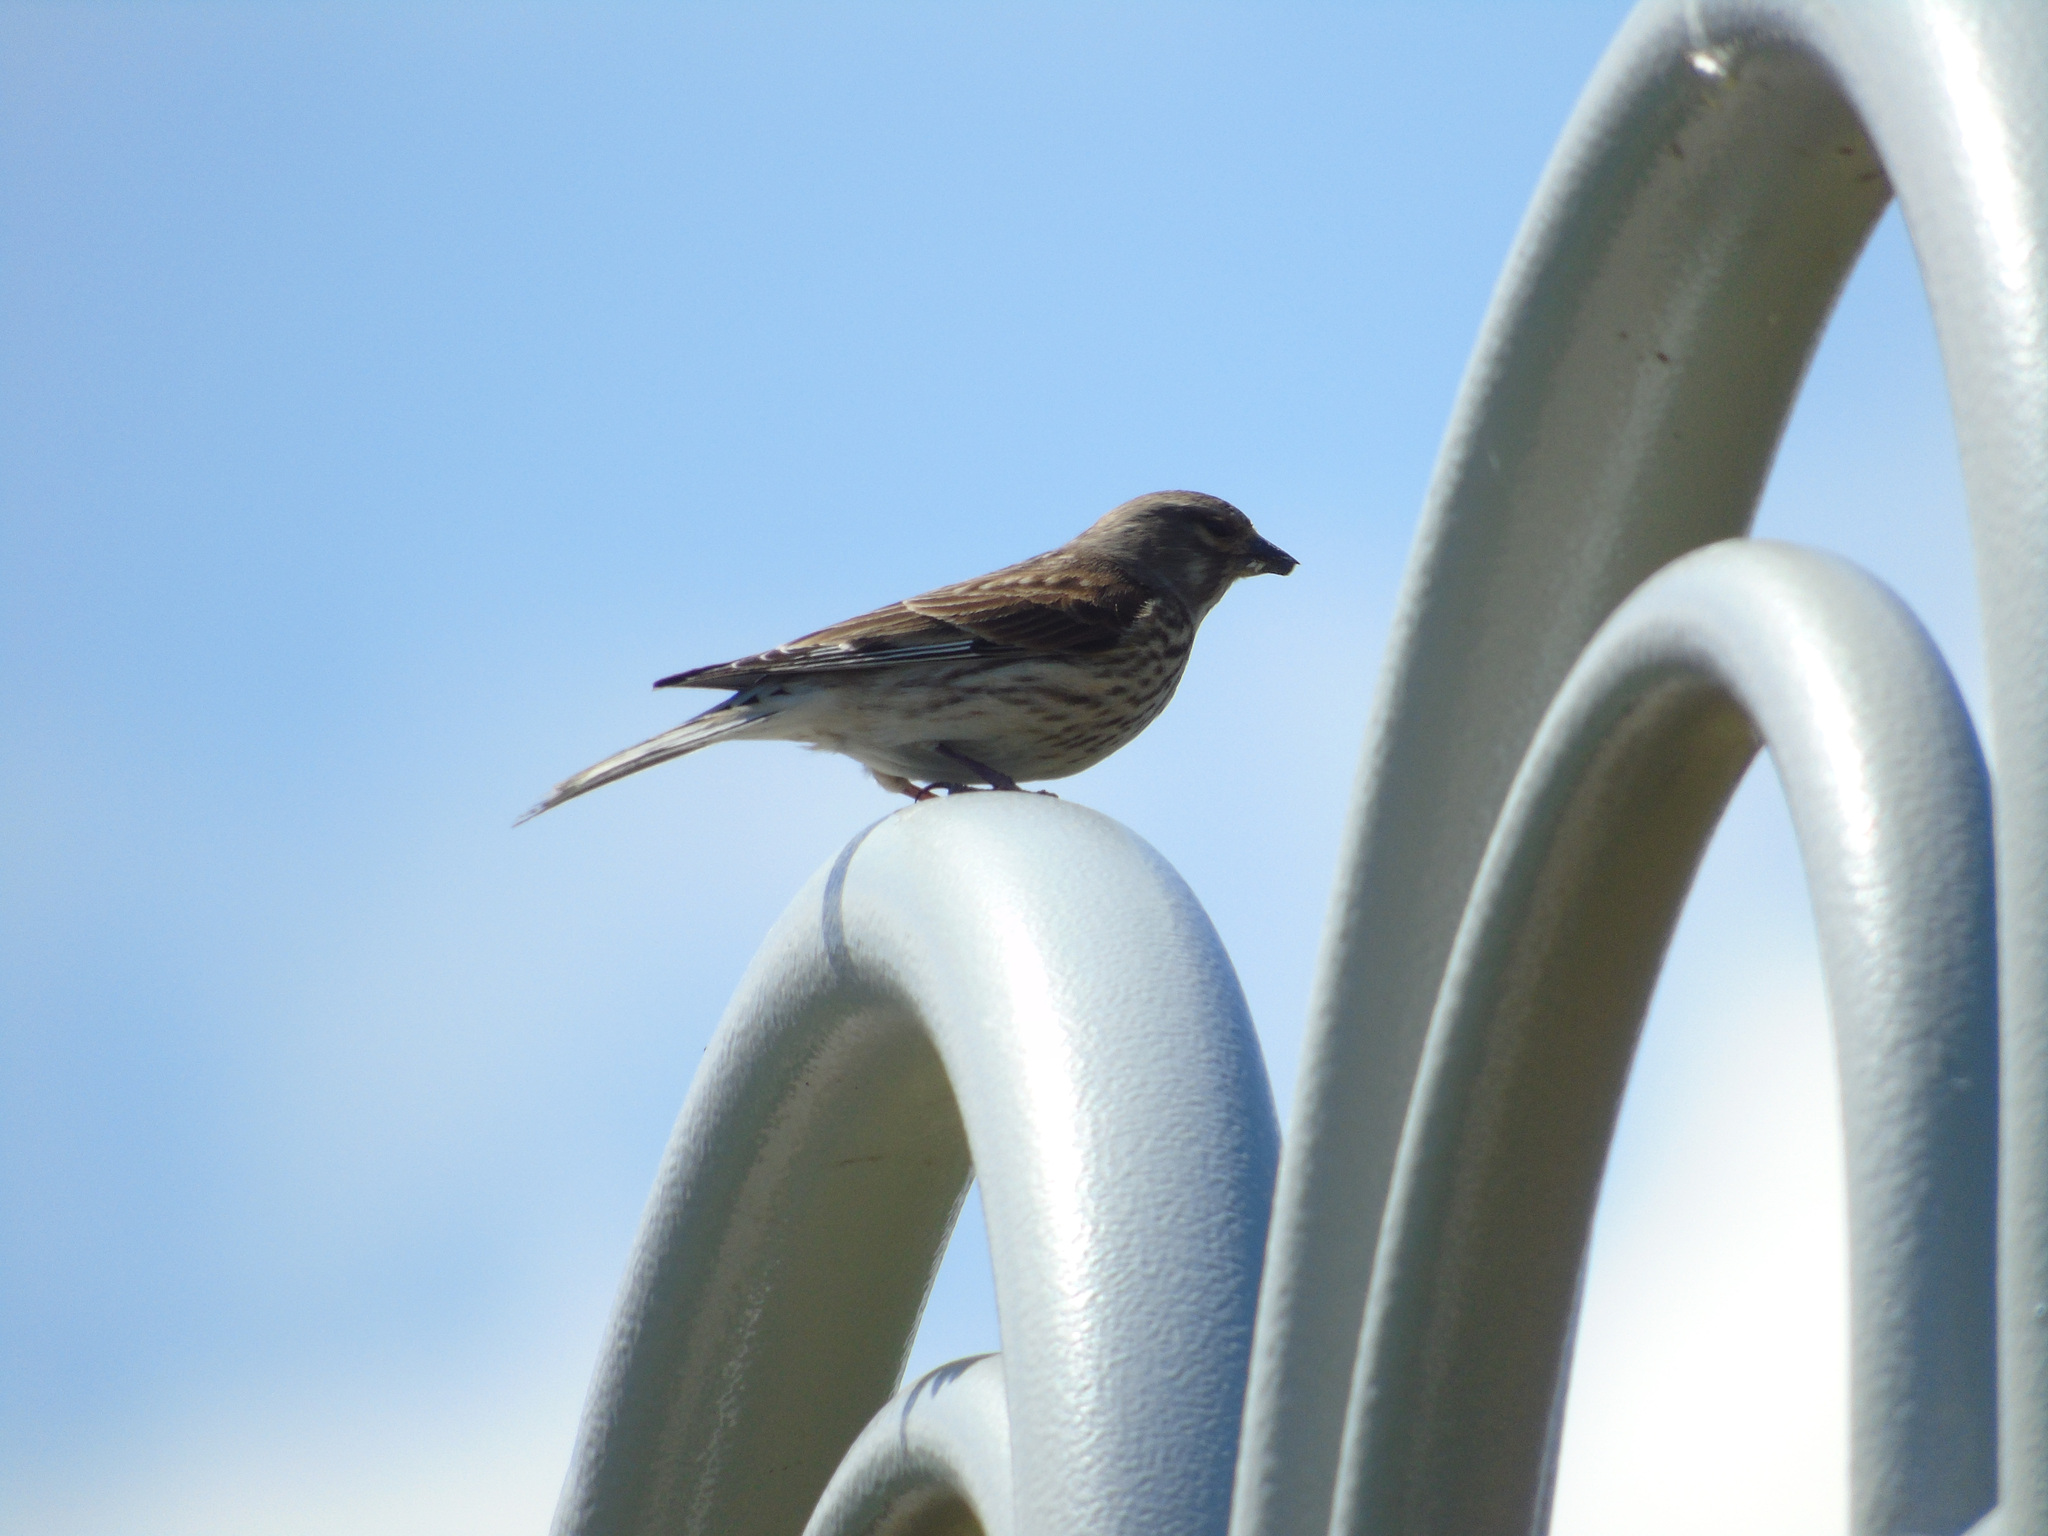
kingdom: Animalia
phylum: Chordata
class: Aves
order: Passeriformes
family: Fringillidae
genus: Linaria
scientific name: Linaria cannabina
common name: Common linnet
